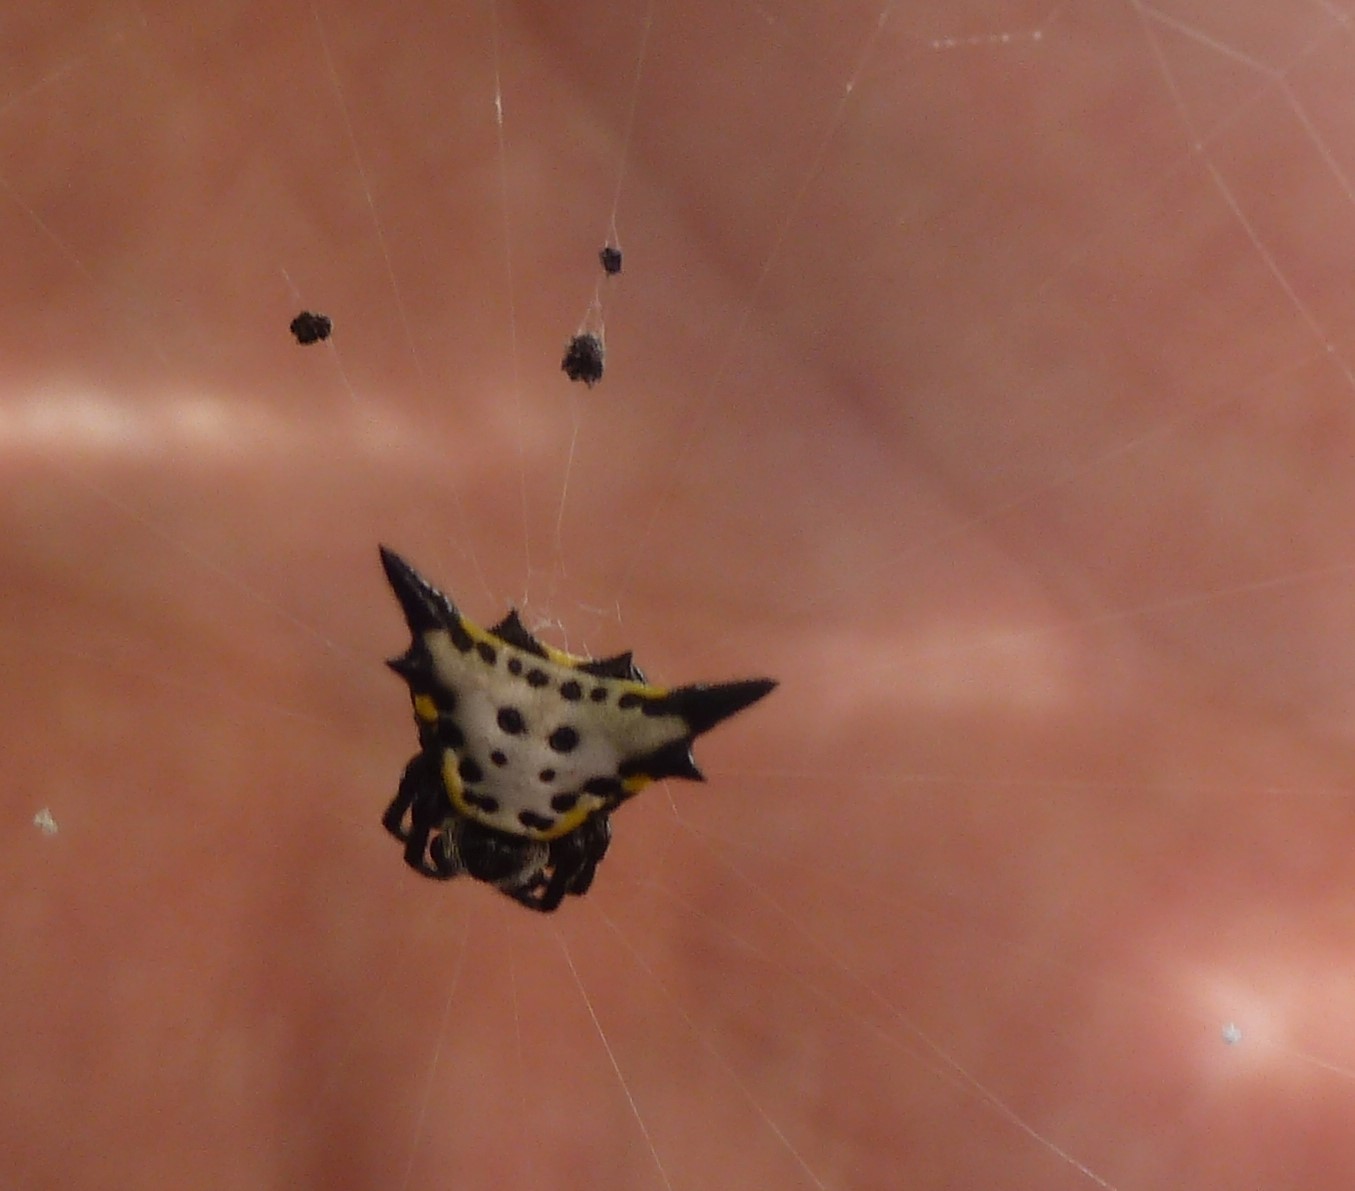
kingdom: Animalia
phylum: Arthropoda
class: Arachnida
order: Araneae
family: Araneidae
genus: Acrosomoides
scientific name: Acrosomoides acrosomoides
